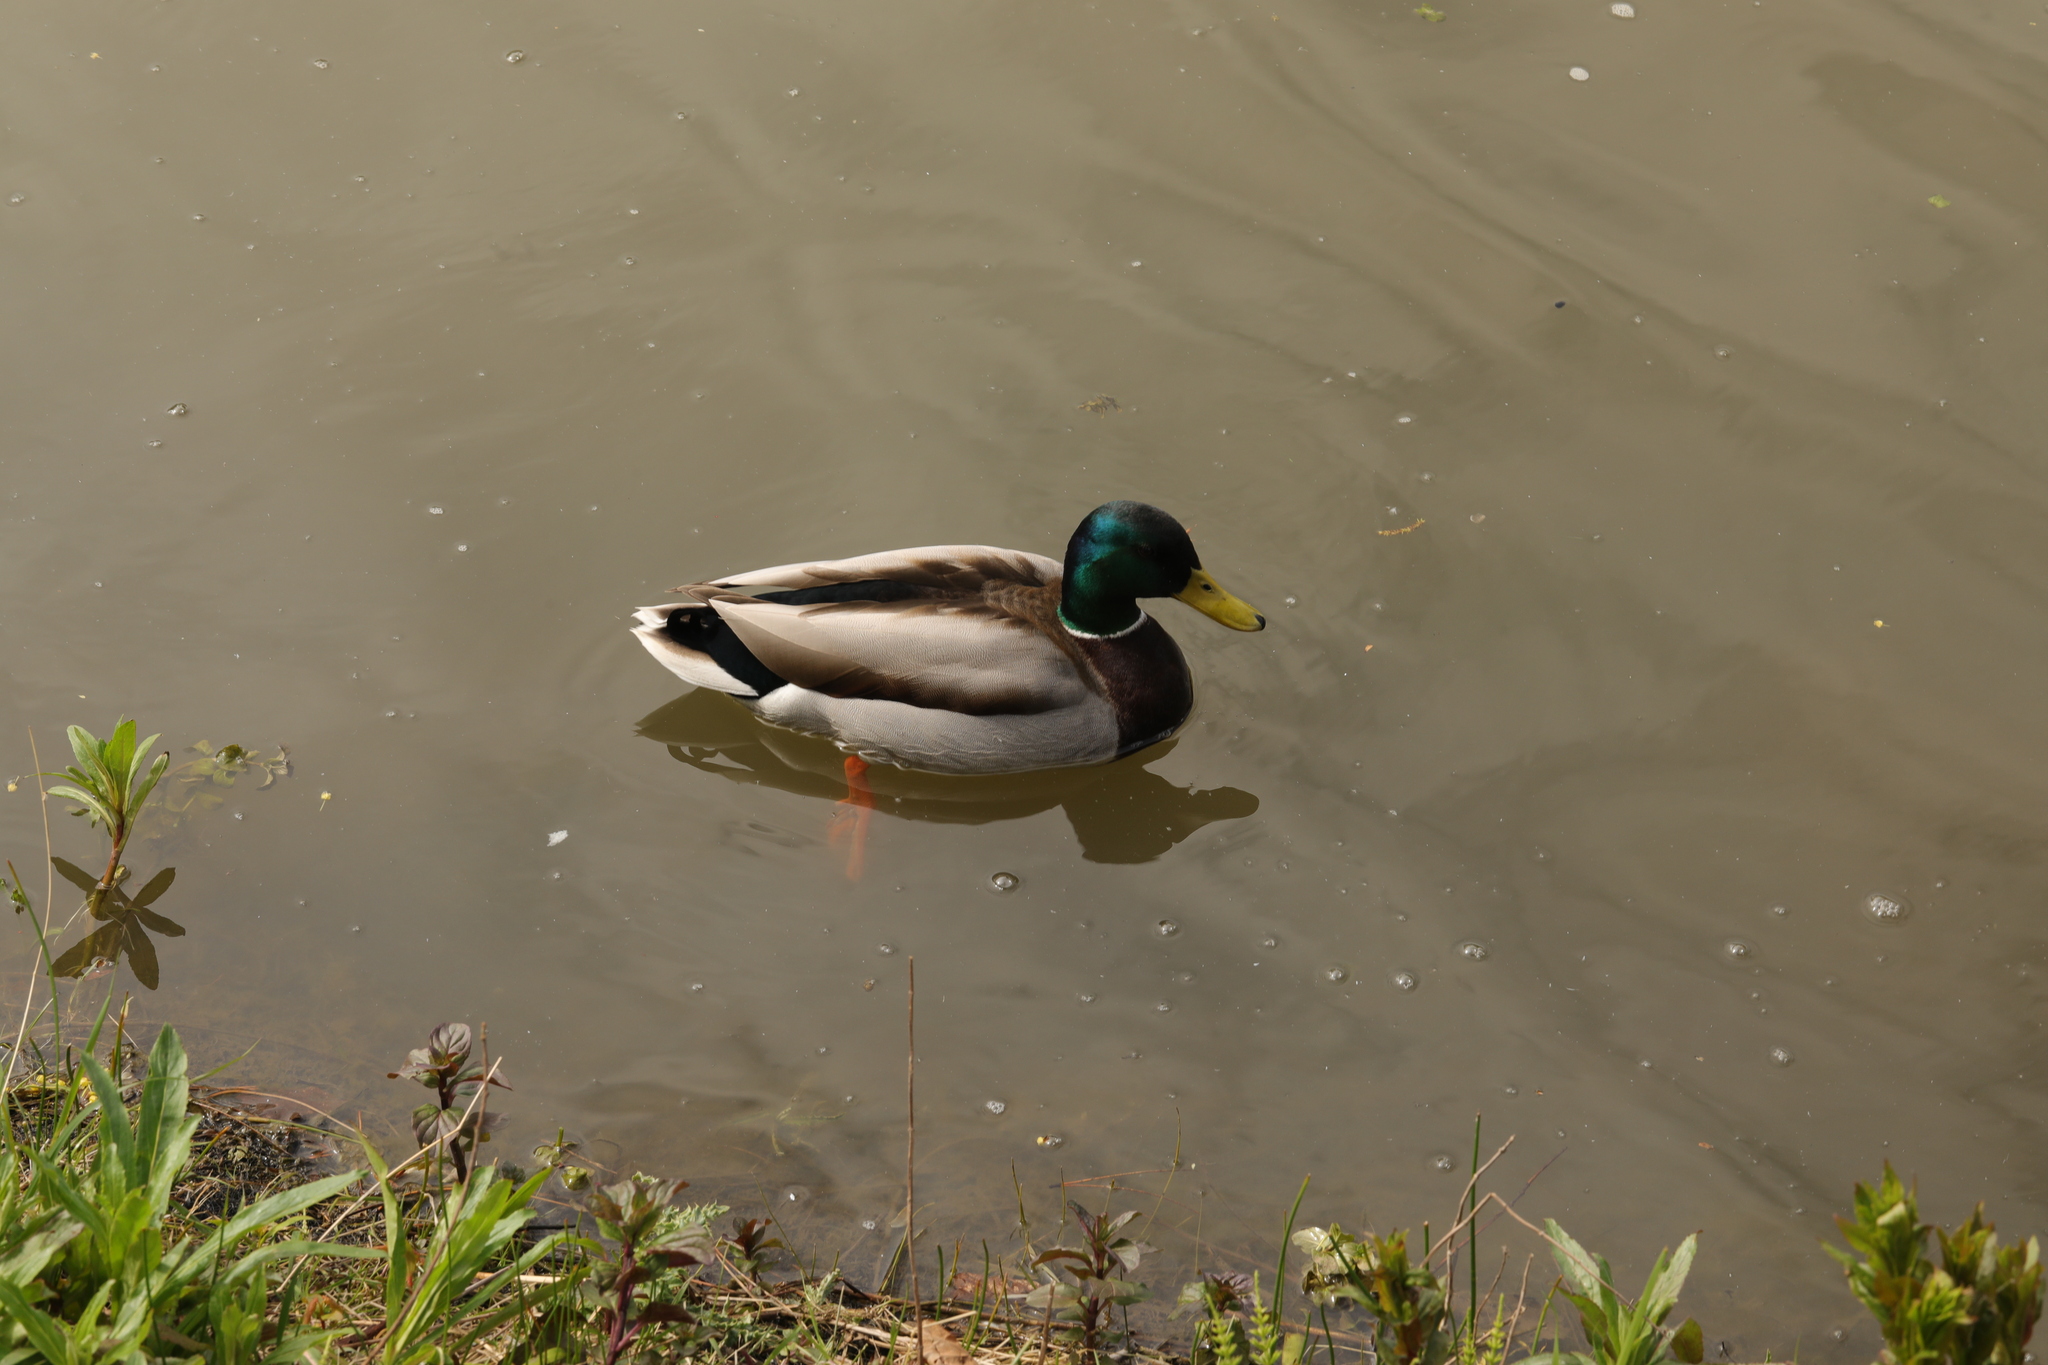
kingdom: Animalia
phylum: Chordata
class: Aves
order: Anseriformes
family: Anatidae
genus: Anas
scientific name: Anas platyrhynchos
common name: Mallard
